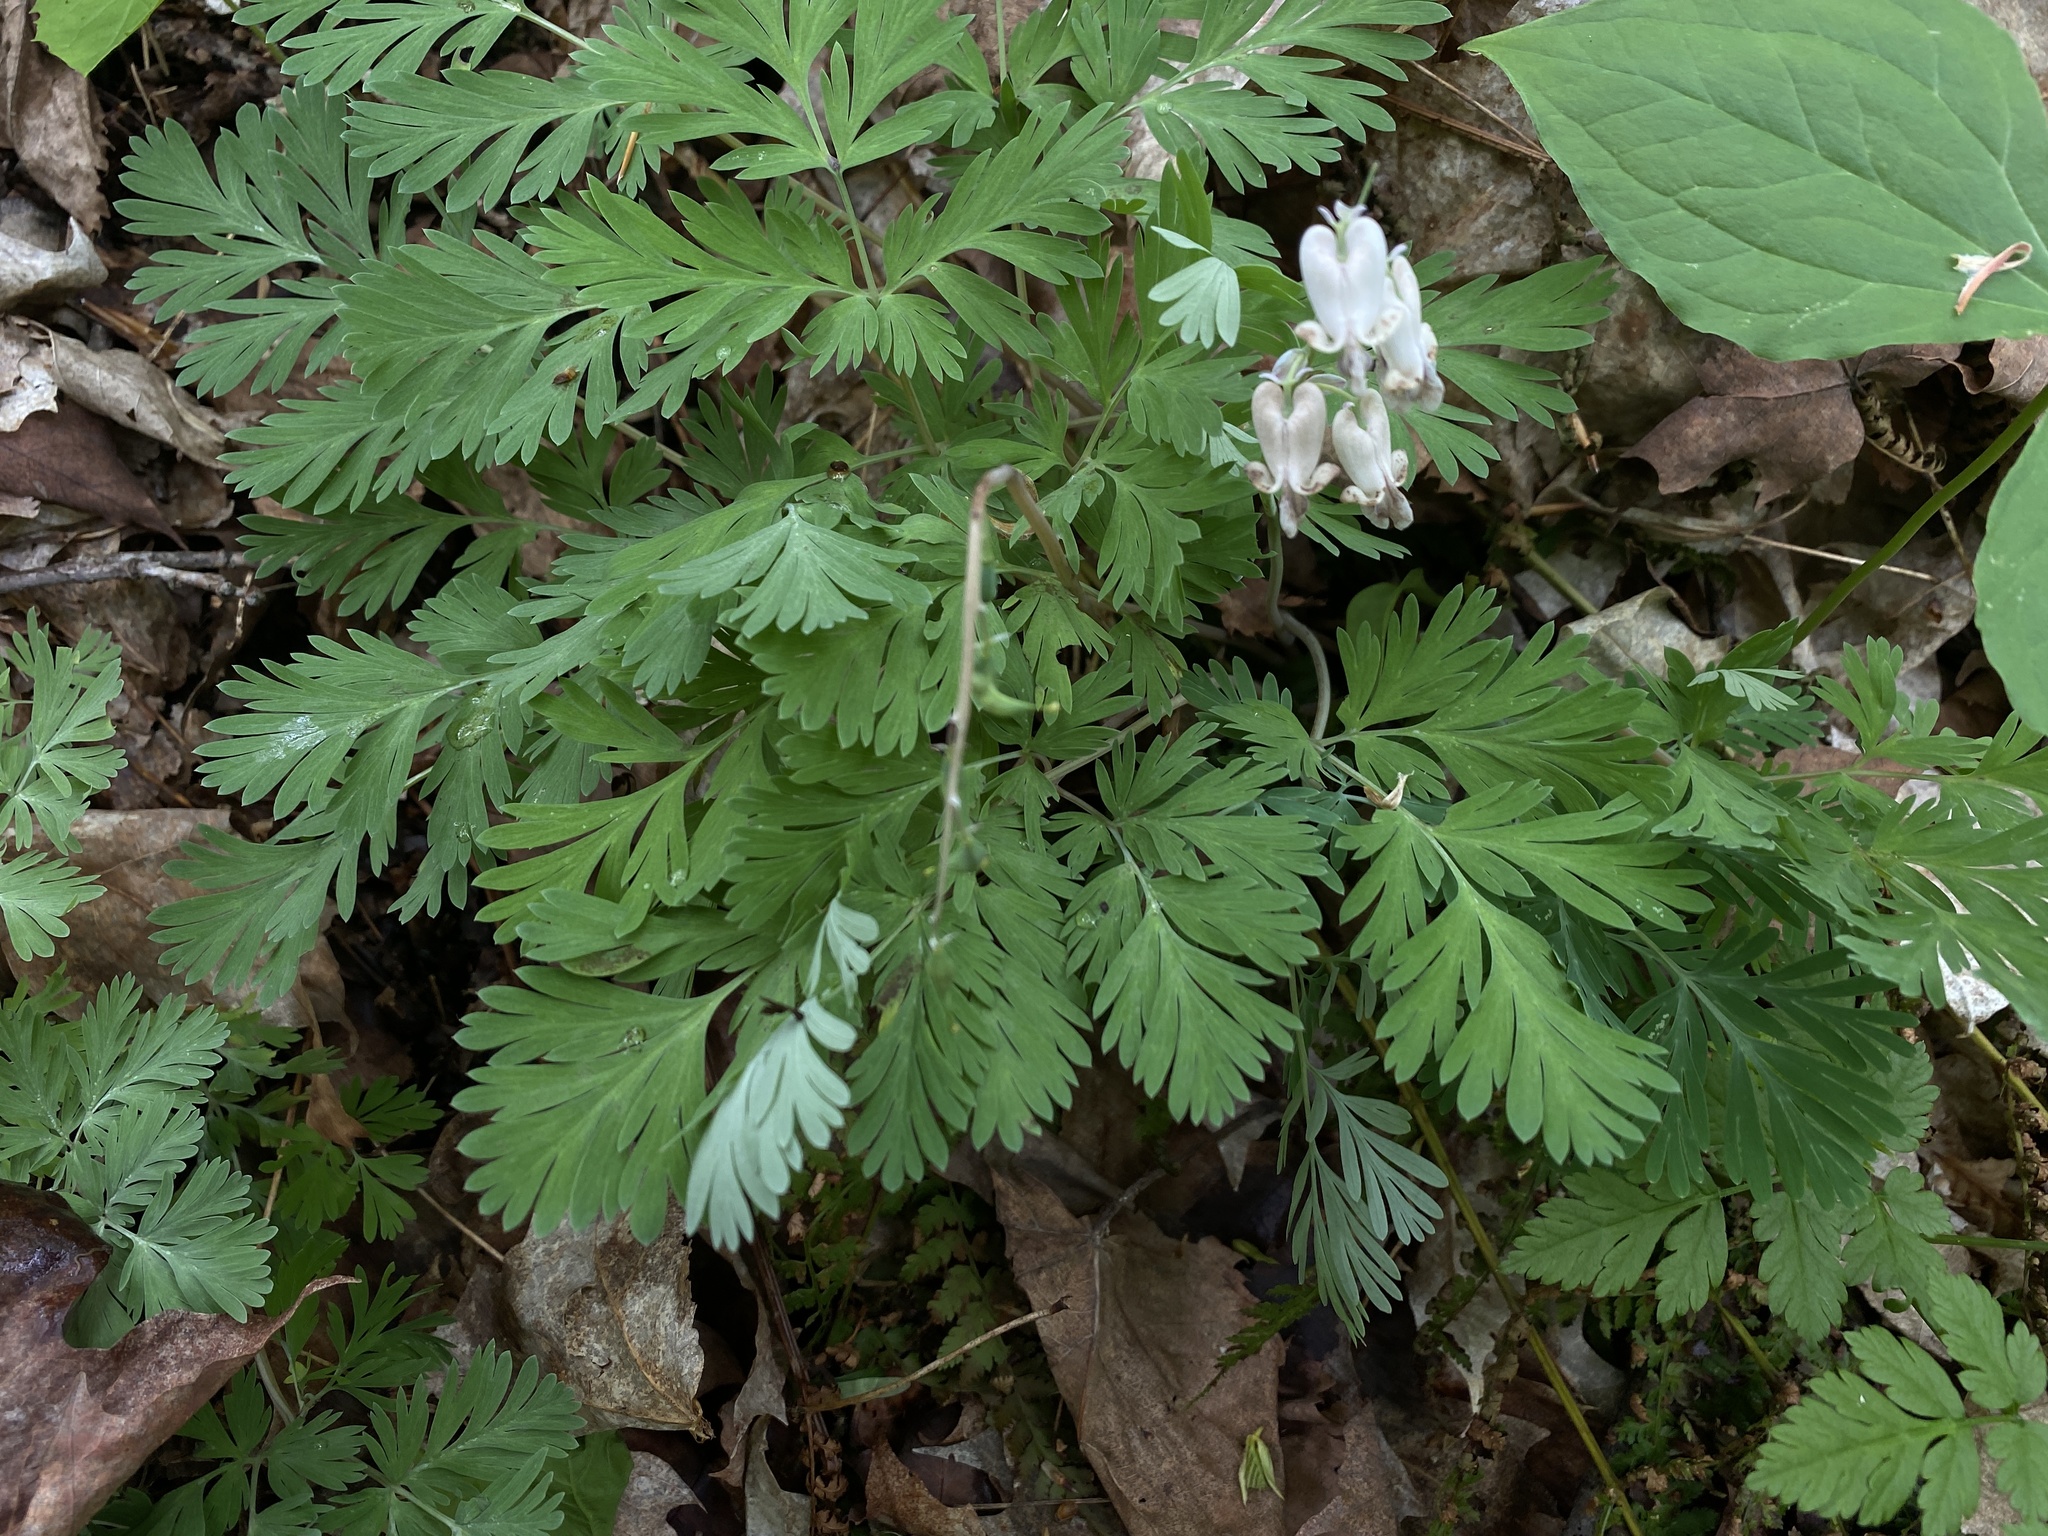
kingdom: Plantae
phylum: Tracheophyta
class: Magnoliopsida
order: Ranunculales
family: Papaveraceae
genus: Dicentra
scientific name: Dicentra canadensis
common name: Squirrel-corn
